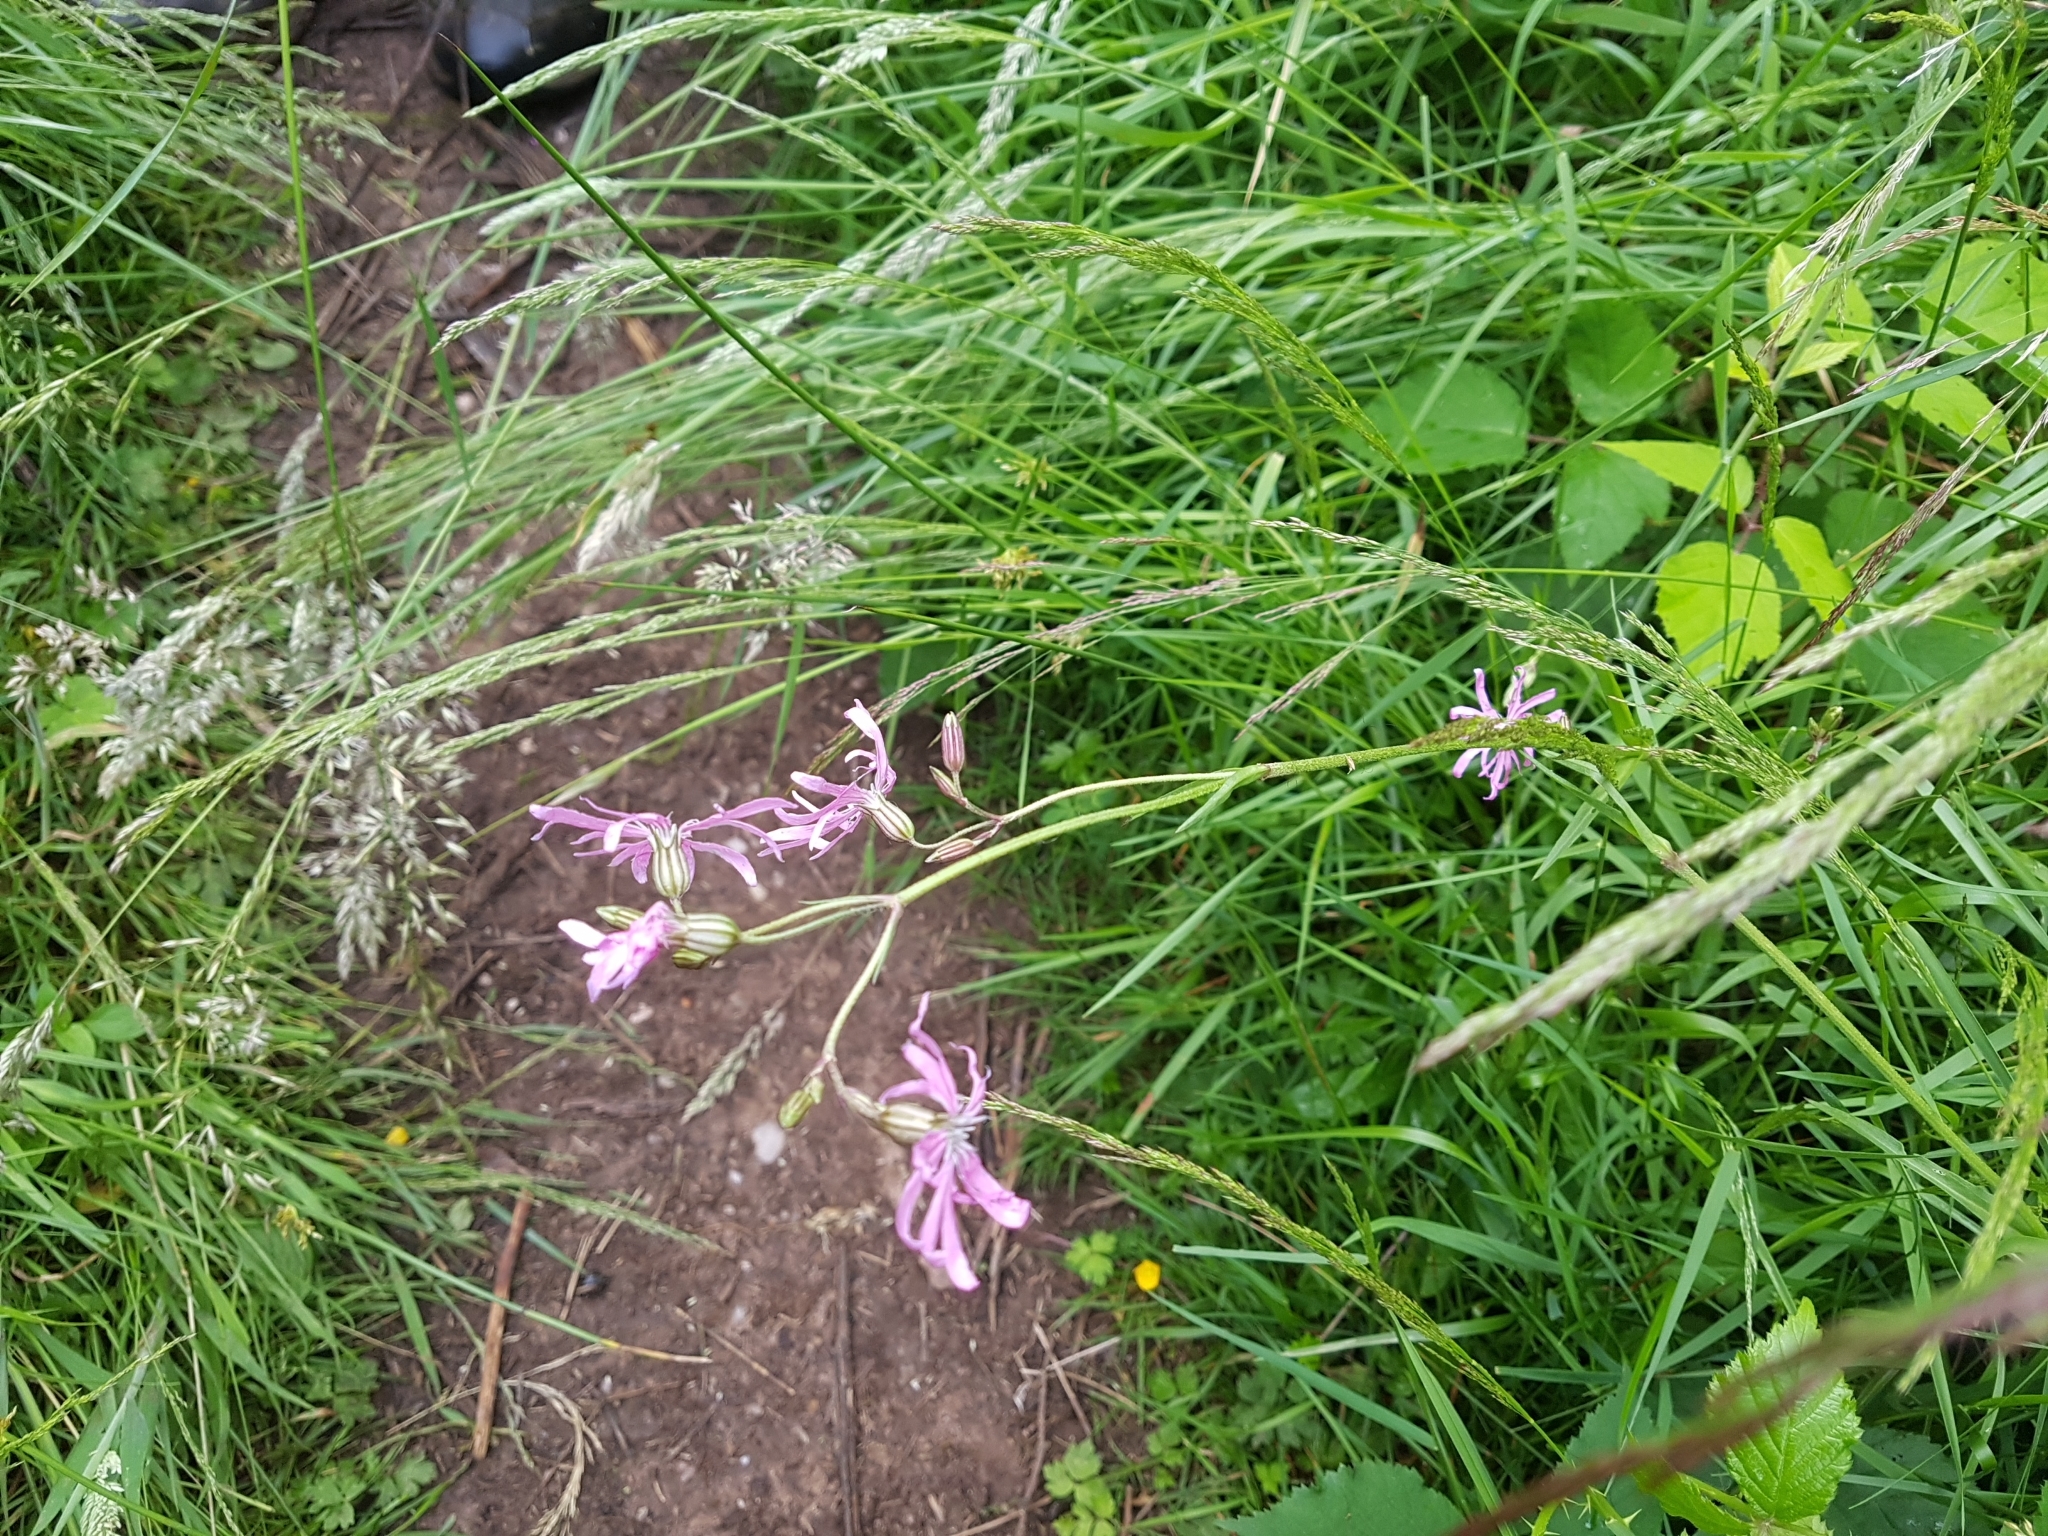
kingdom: Plantae
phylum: Tracheophyta
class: Magnoliopsida
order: Caryophyllales
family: Caryophyllaceae
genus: Silene
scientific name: Silene flos-cuculi
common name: Ragged-robin
